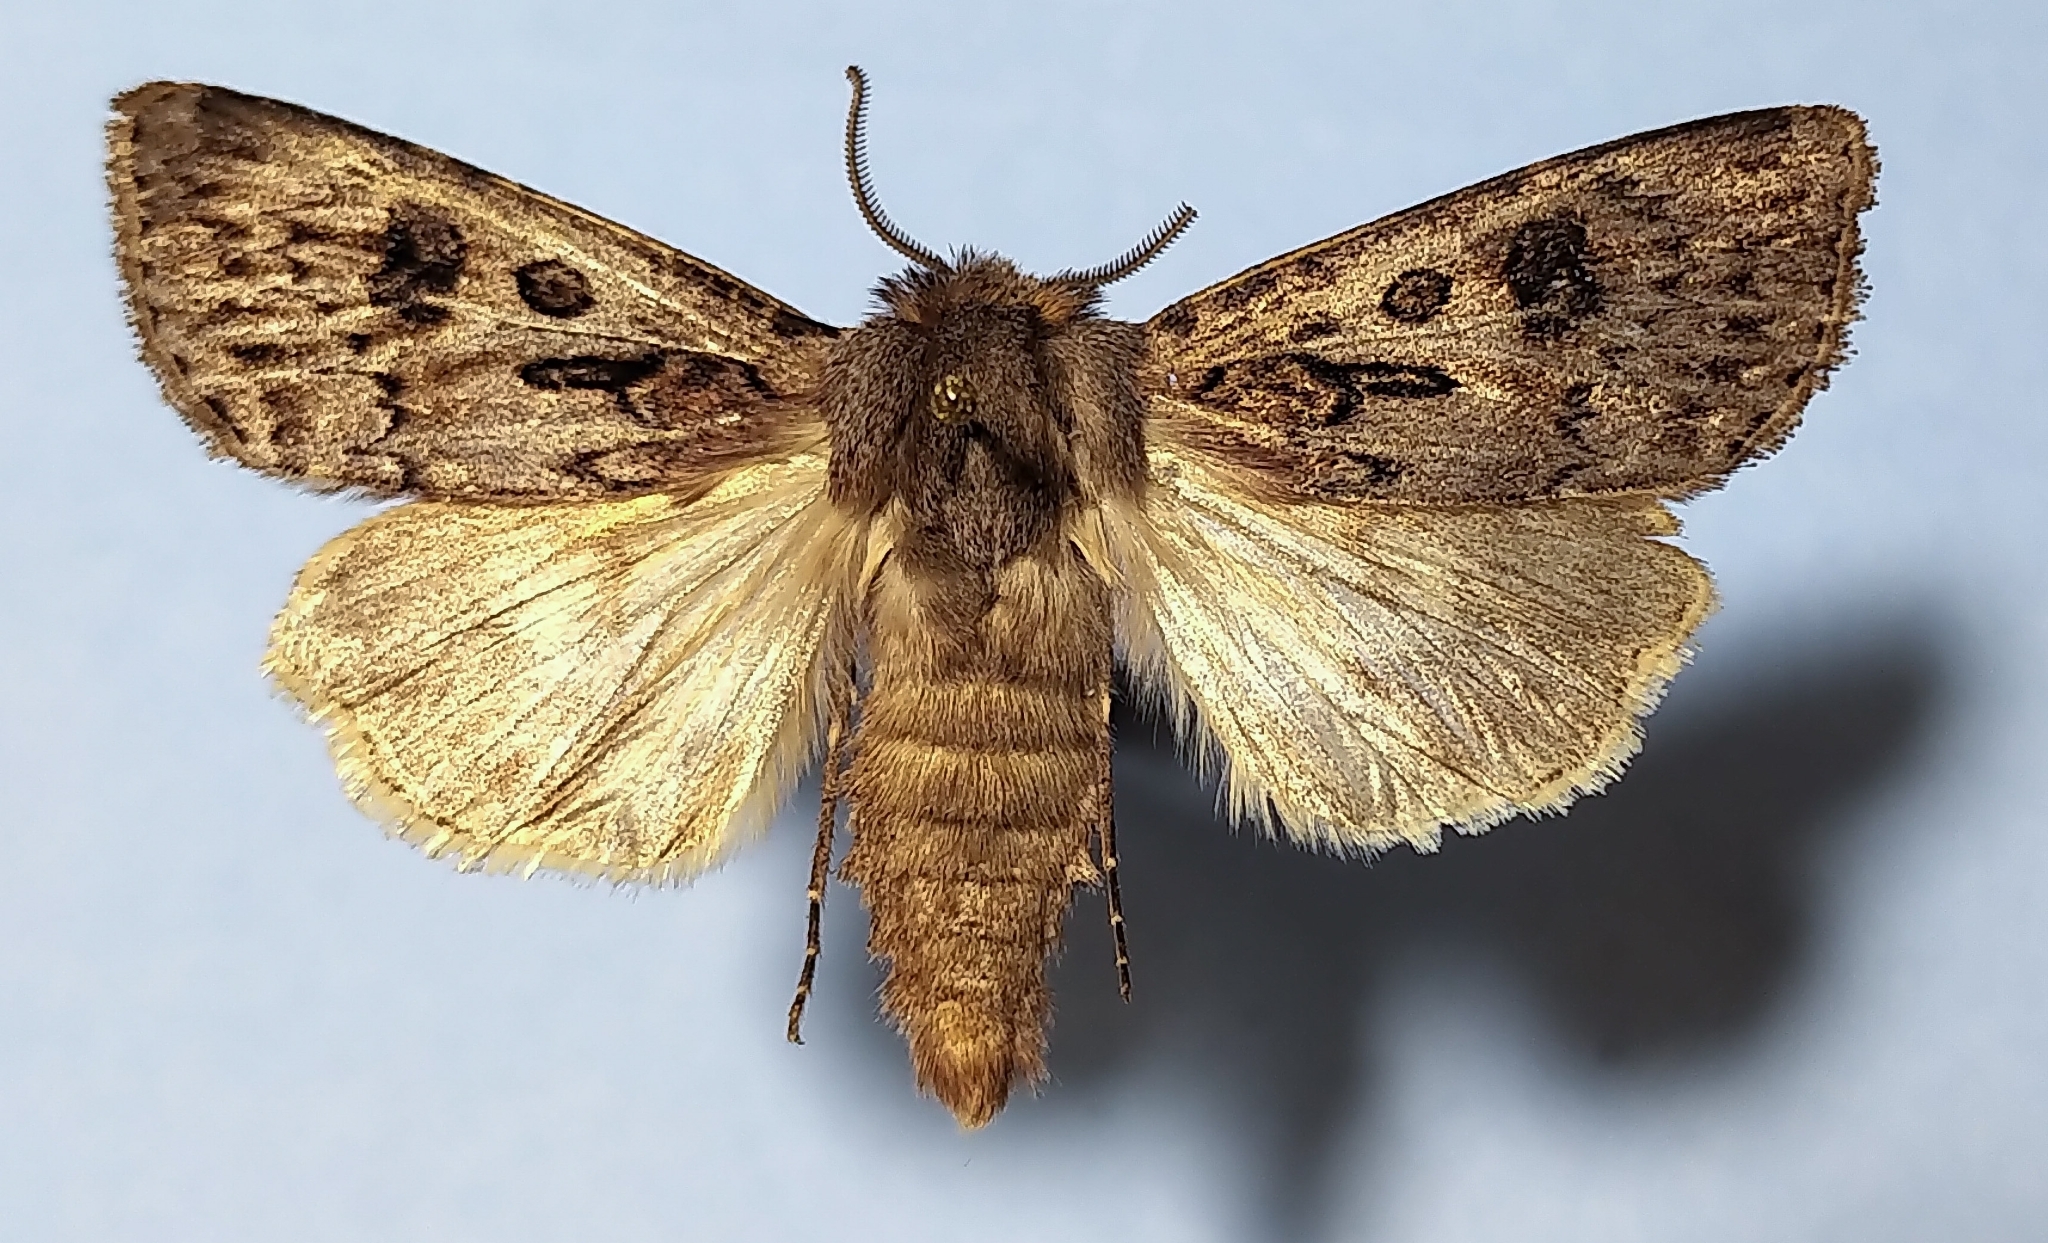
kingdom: Animalia
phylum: Arthropoda
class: Insecta
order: Lepidoptera
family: Noctuidae
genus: Agrotis
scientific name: Agrotis ruta
